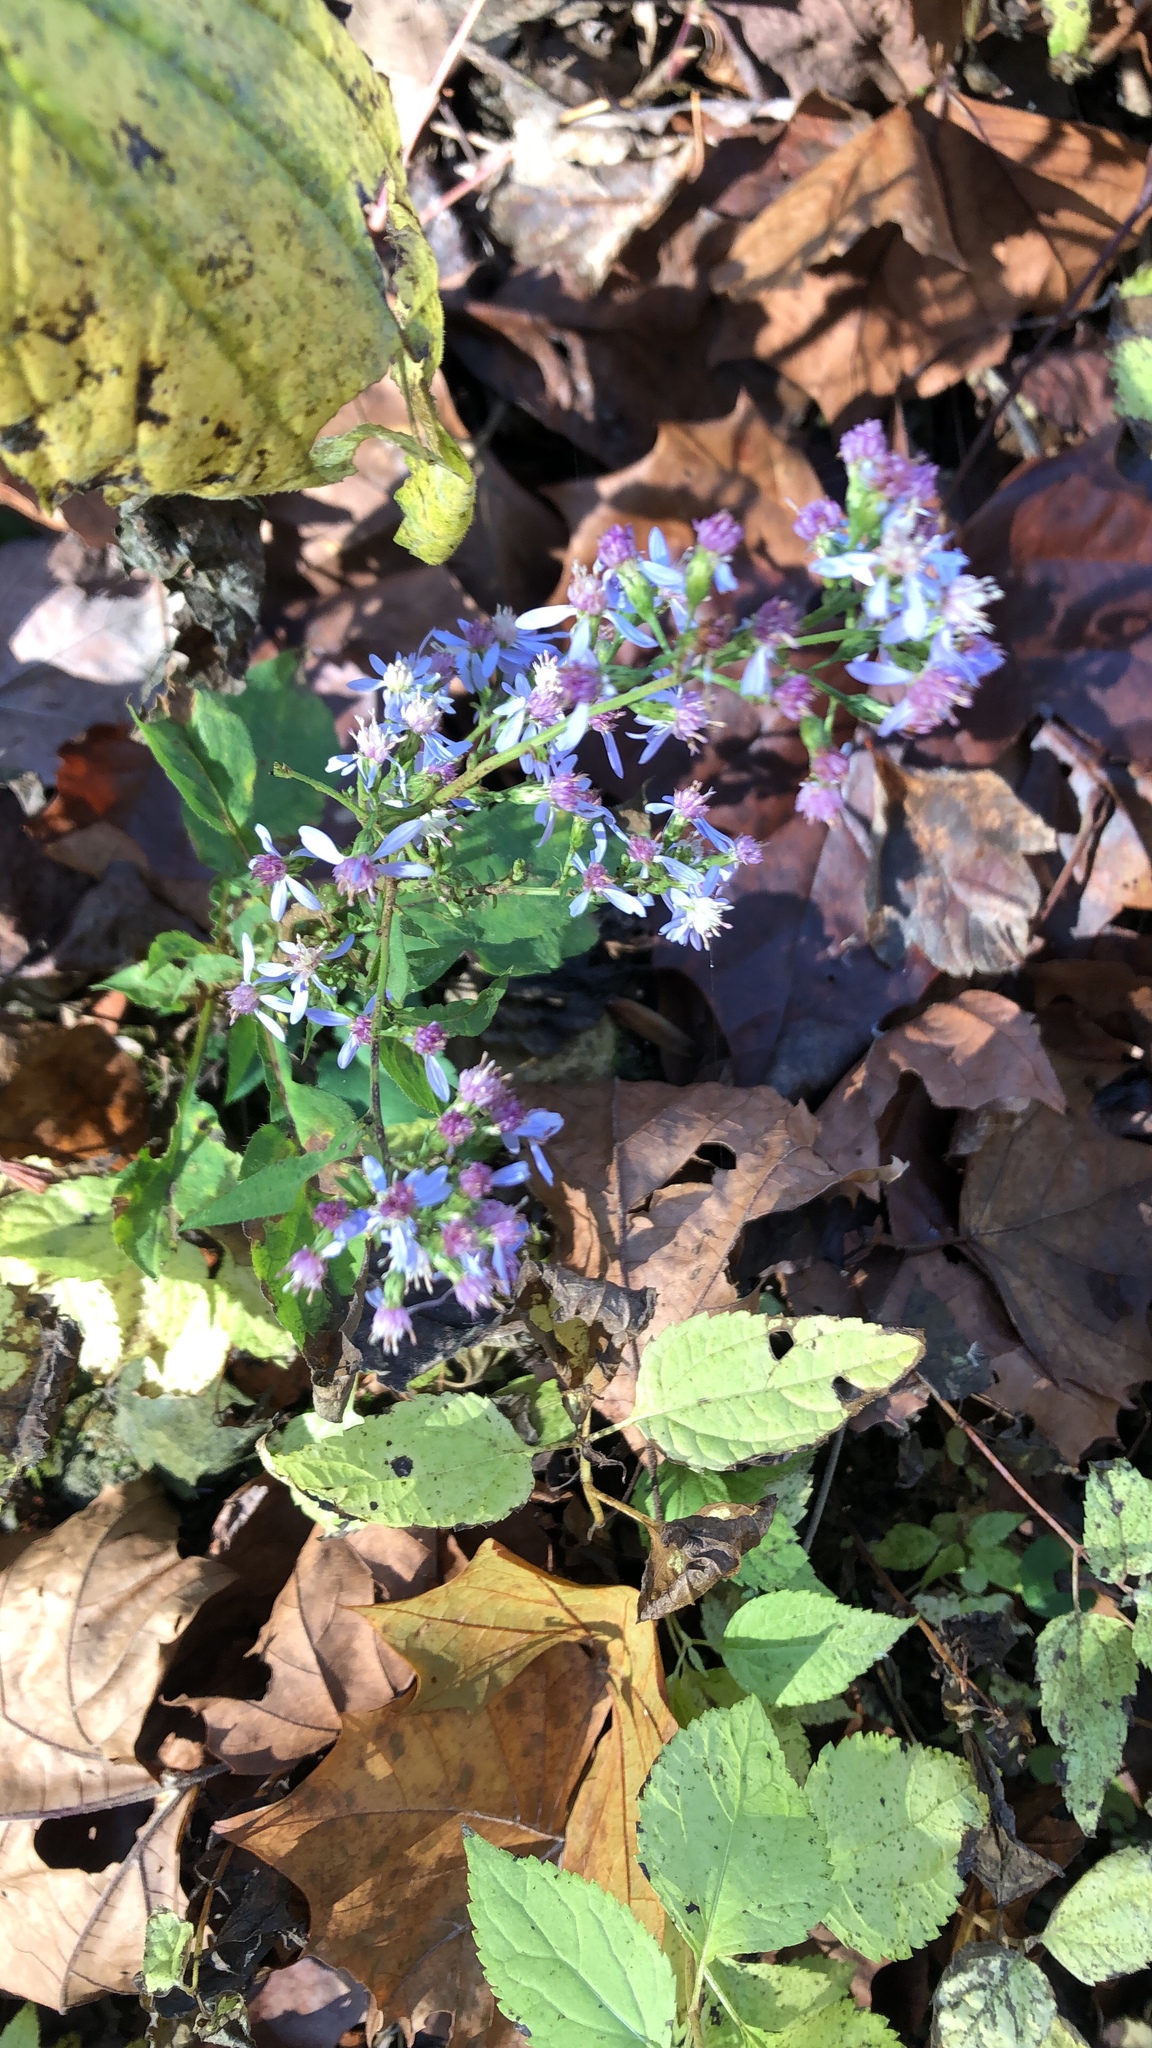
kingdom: Plantae
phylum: Tracheophyta
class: Magnoliopsida
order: Asterales
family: Asteraceae
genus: Symphyotrichum
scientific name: Symphyotrichum cordifolium
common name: Beeweed
